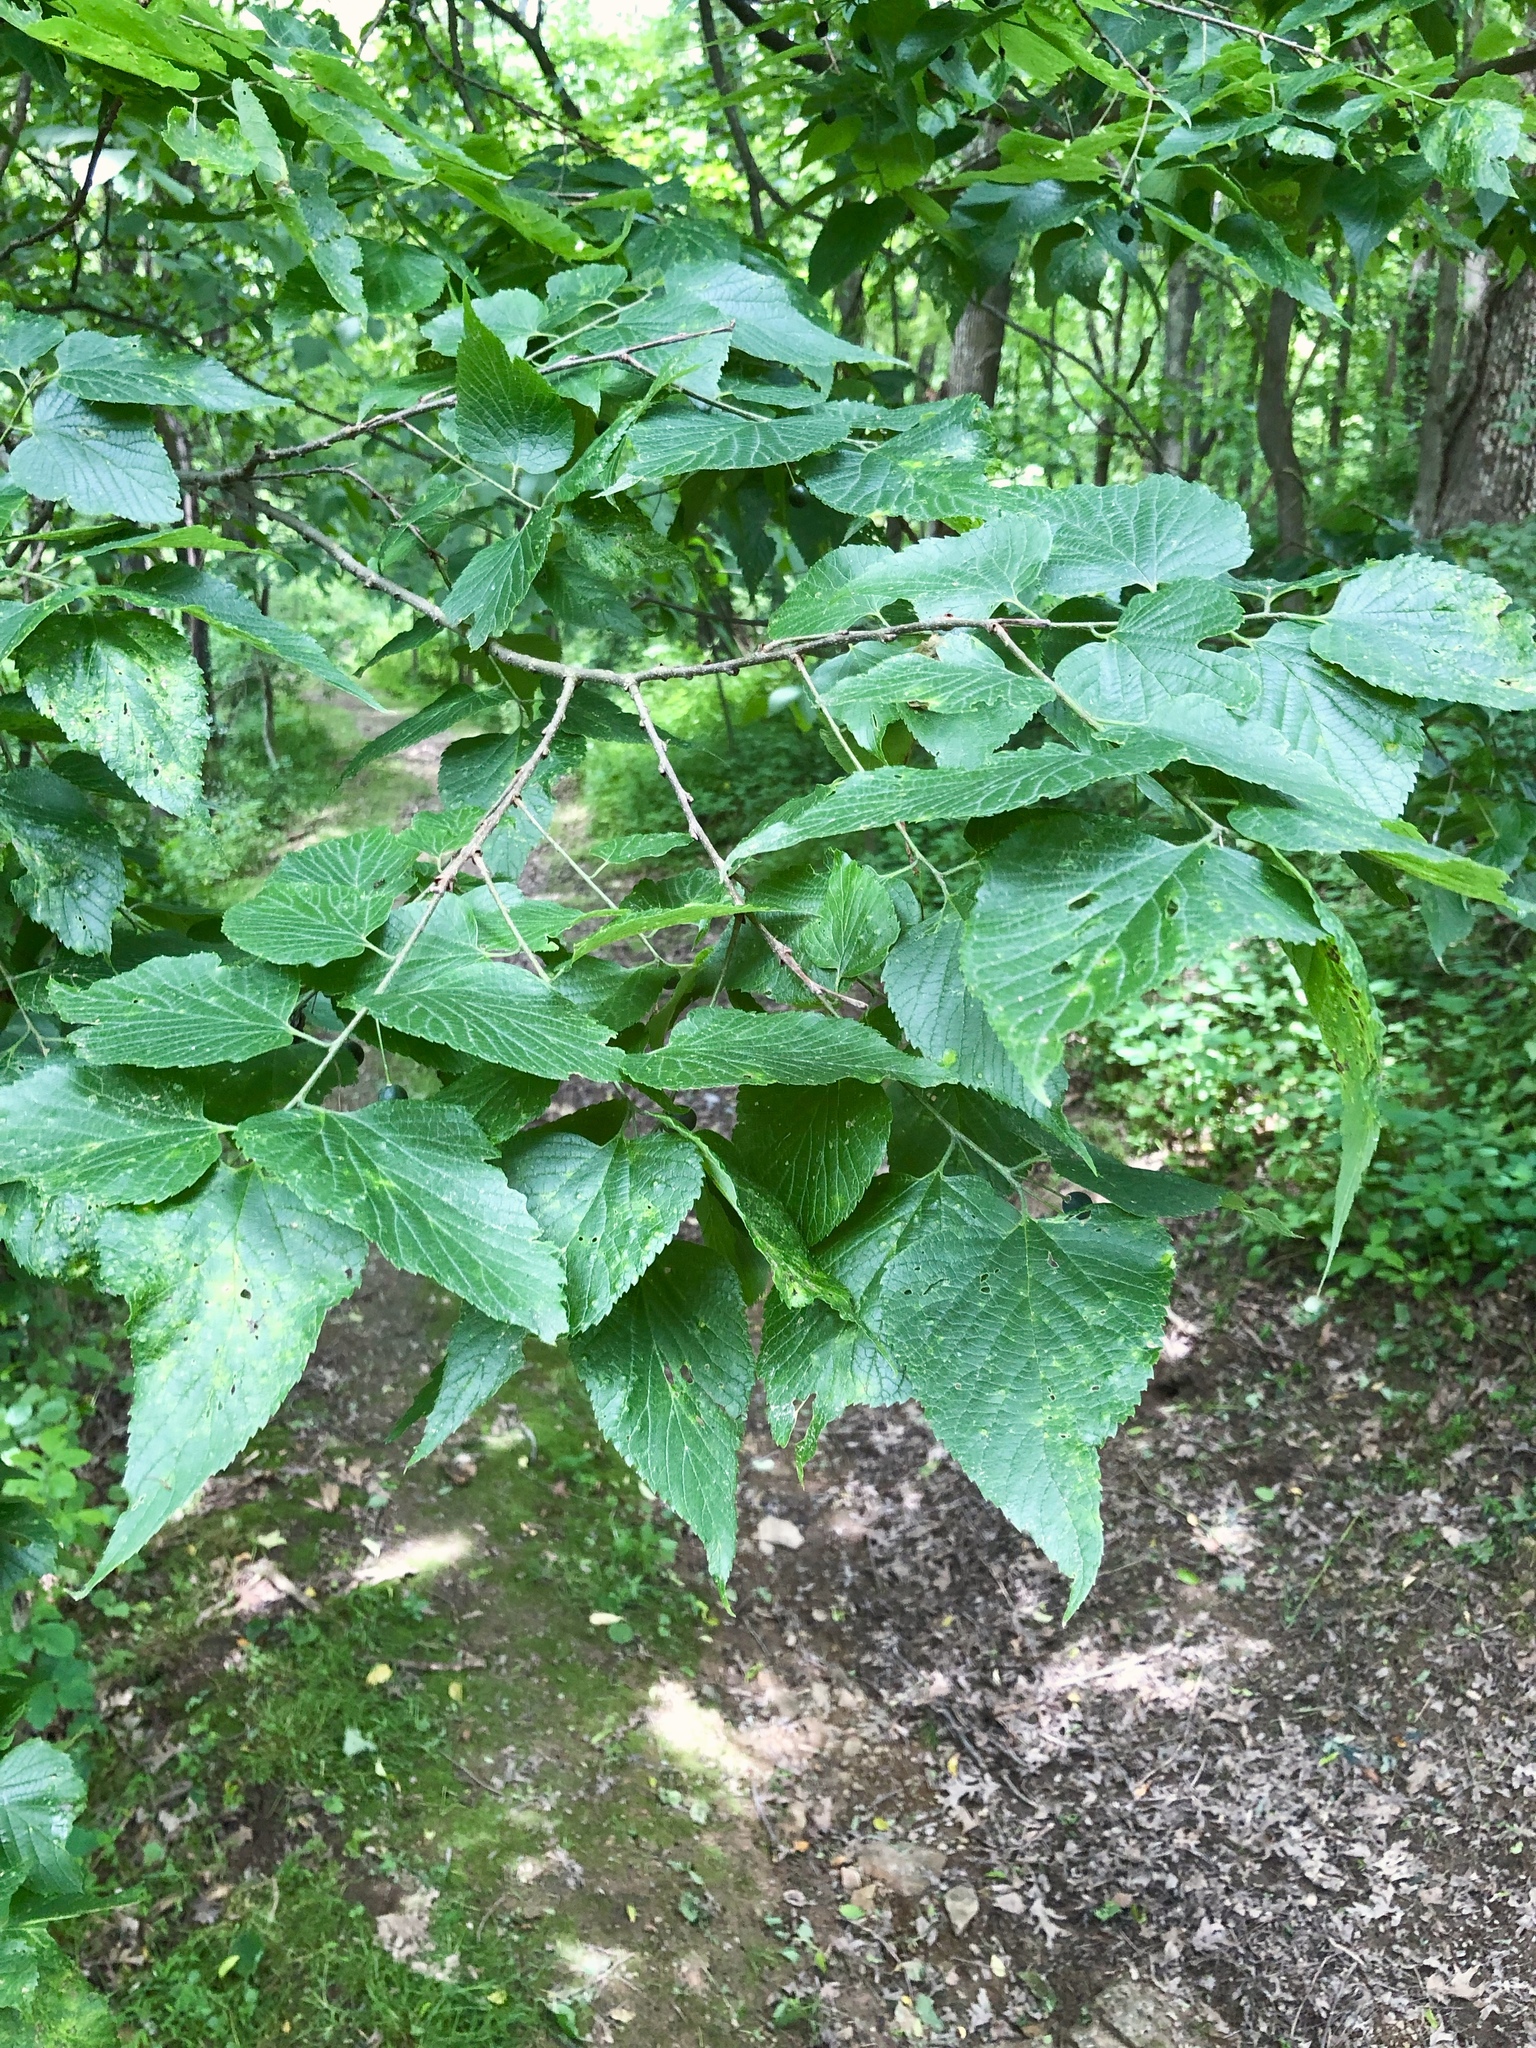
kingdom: Plantae
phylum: Tracheophyta
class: Magnoliopsida
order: Rosales
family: Cannabaceae
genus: Celtis
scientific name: Celtis occidentalis
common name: Common hackberry
